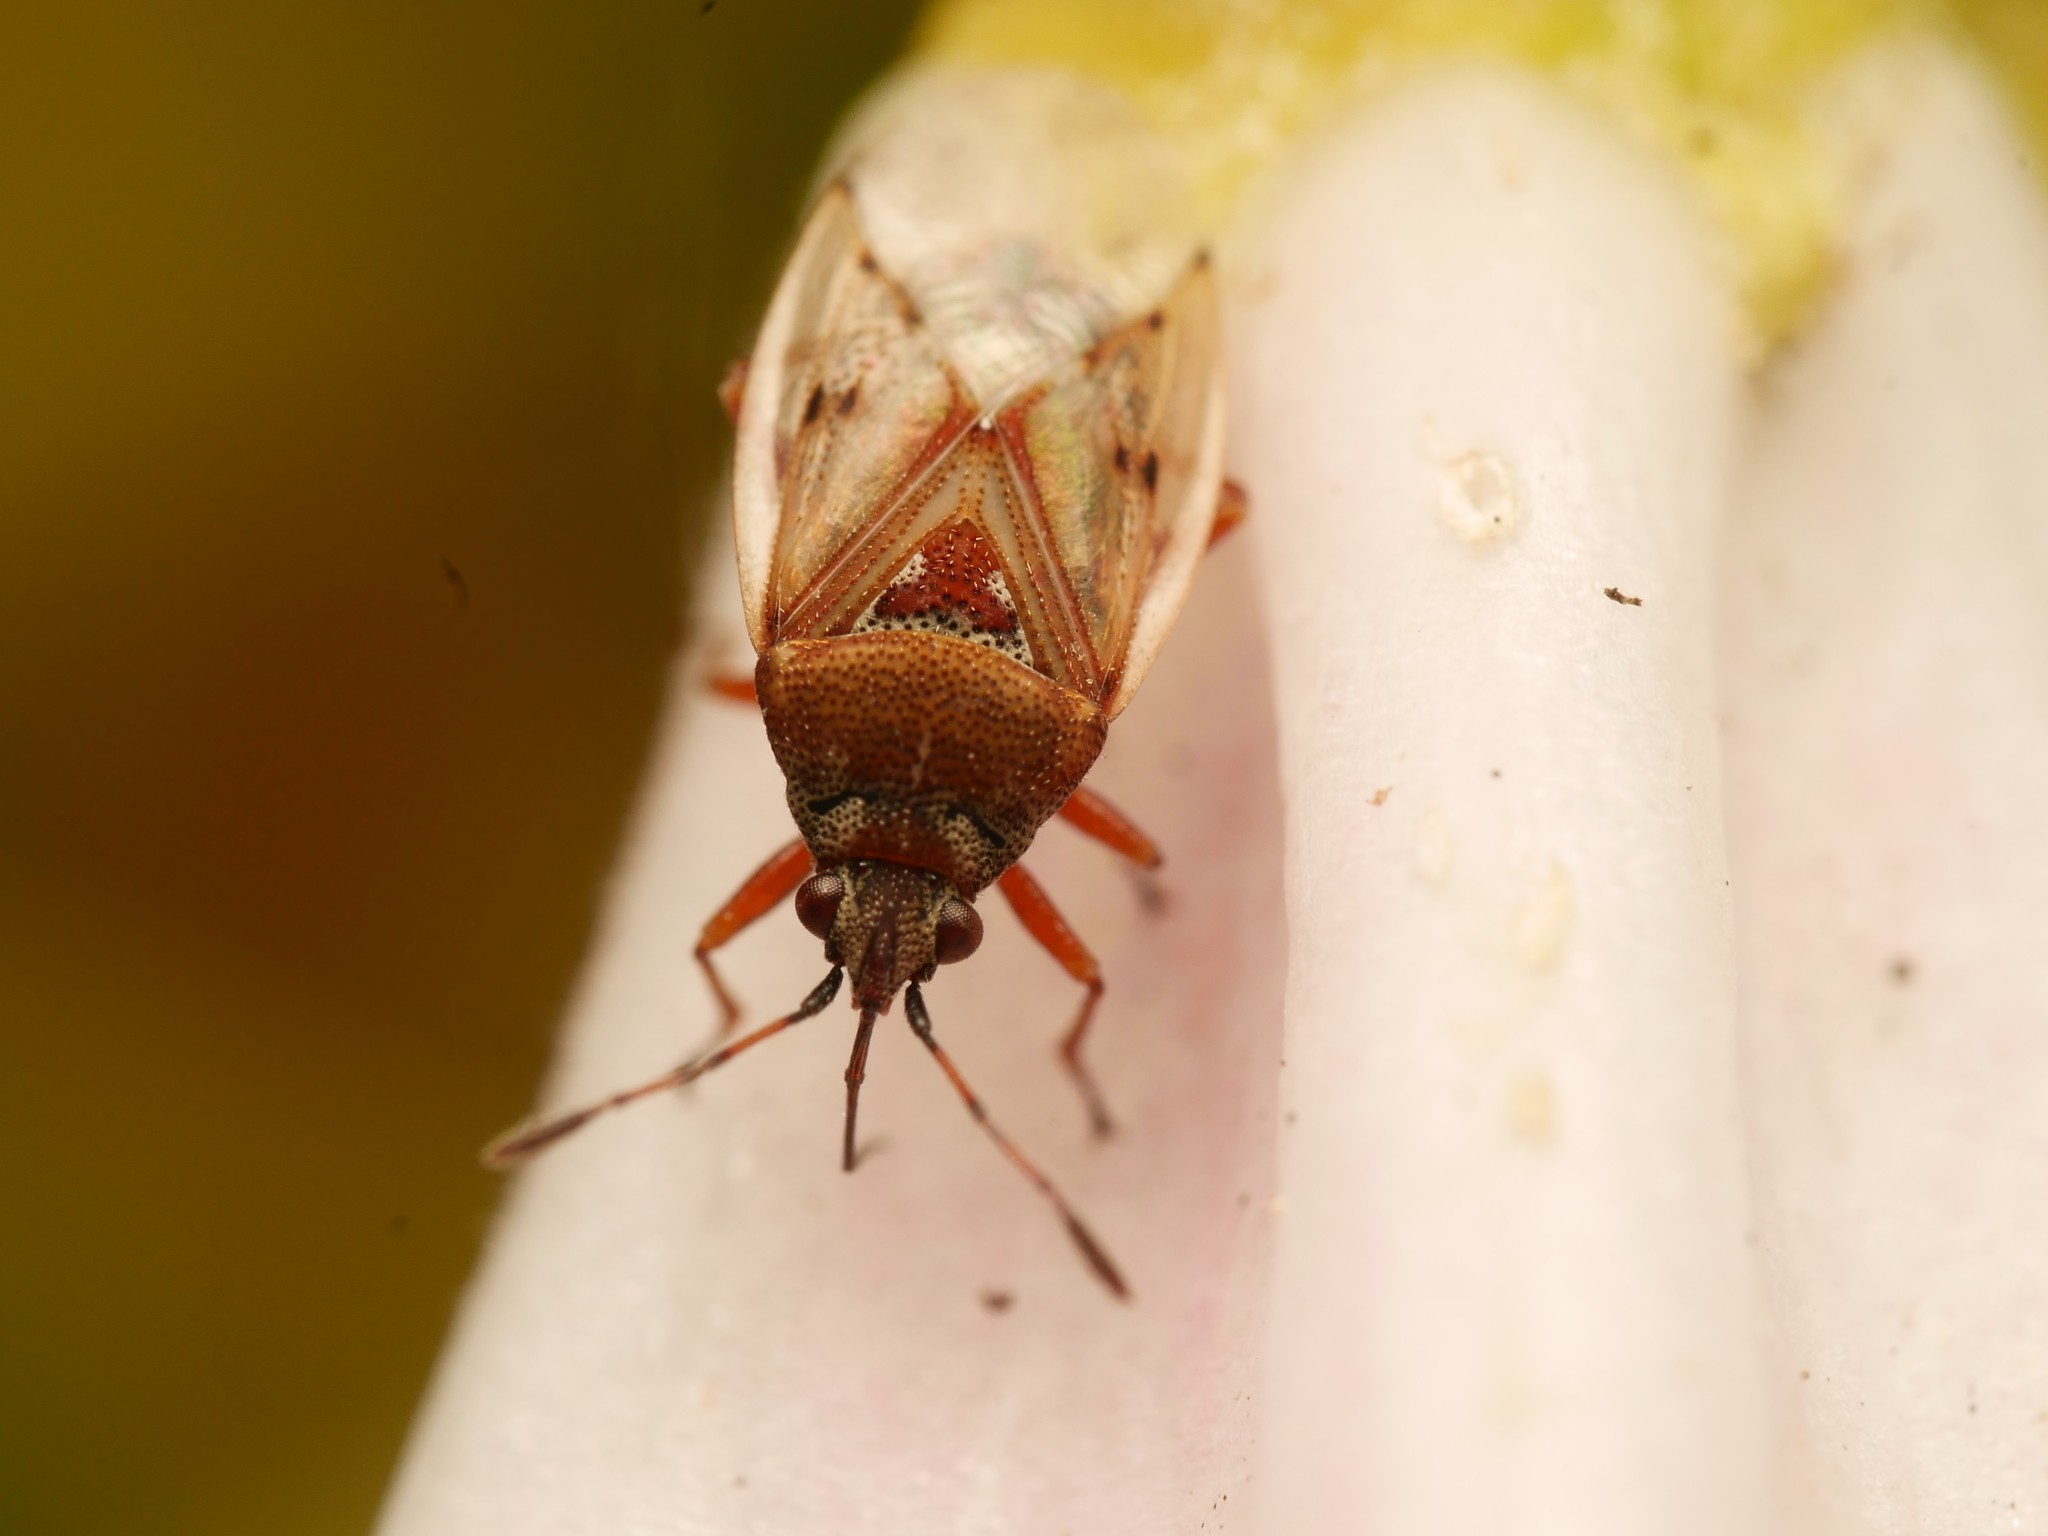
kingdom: Animalia
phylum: Arthropoda
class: Insecta
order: Hemiptera
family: Lygaeidae
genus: Kleidocerys
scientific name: Kleidocerys resedae
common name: Birch catkin bug
